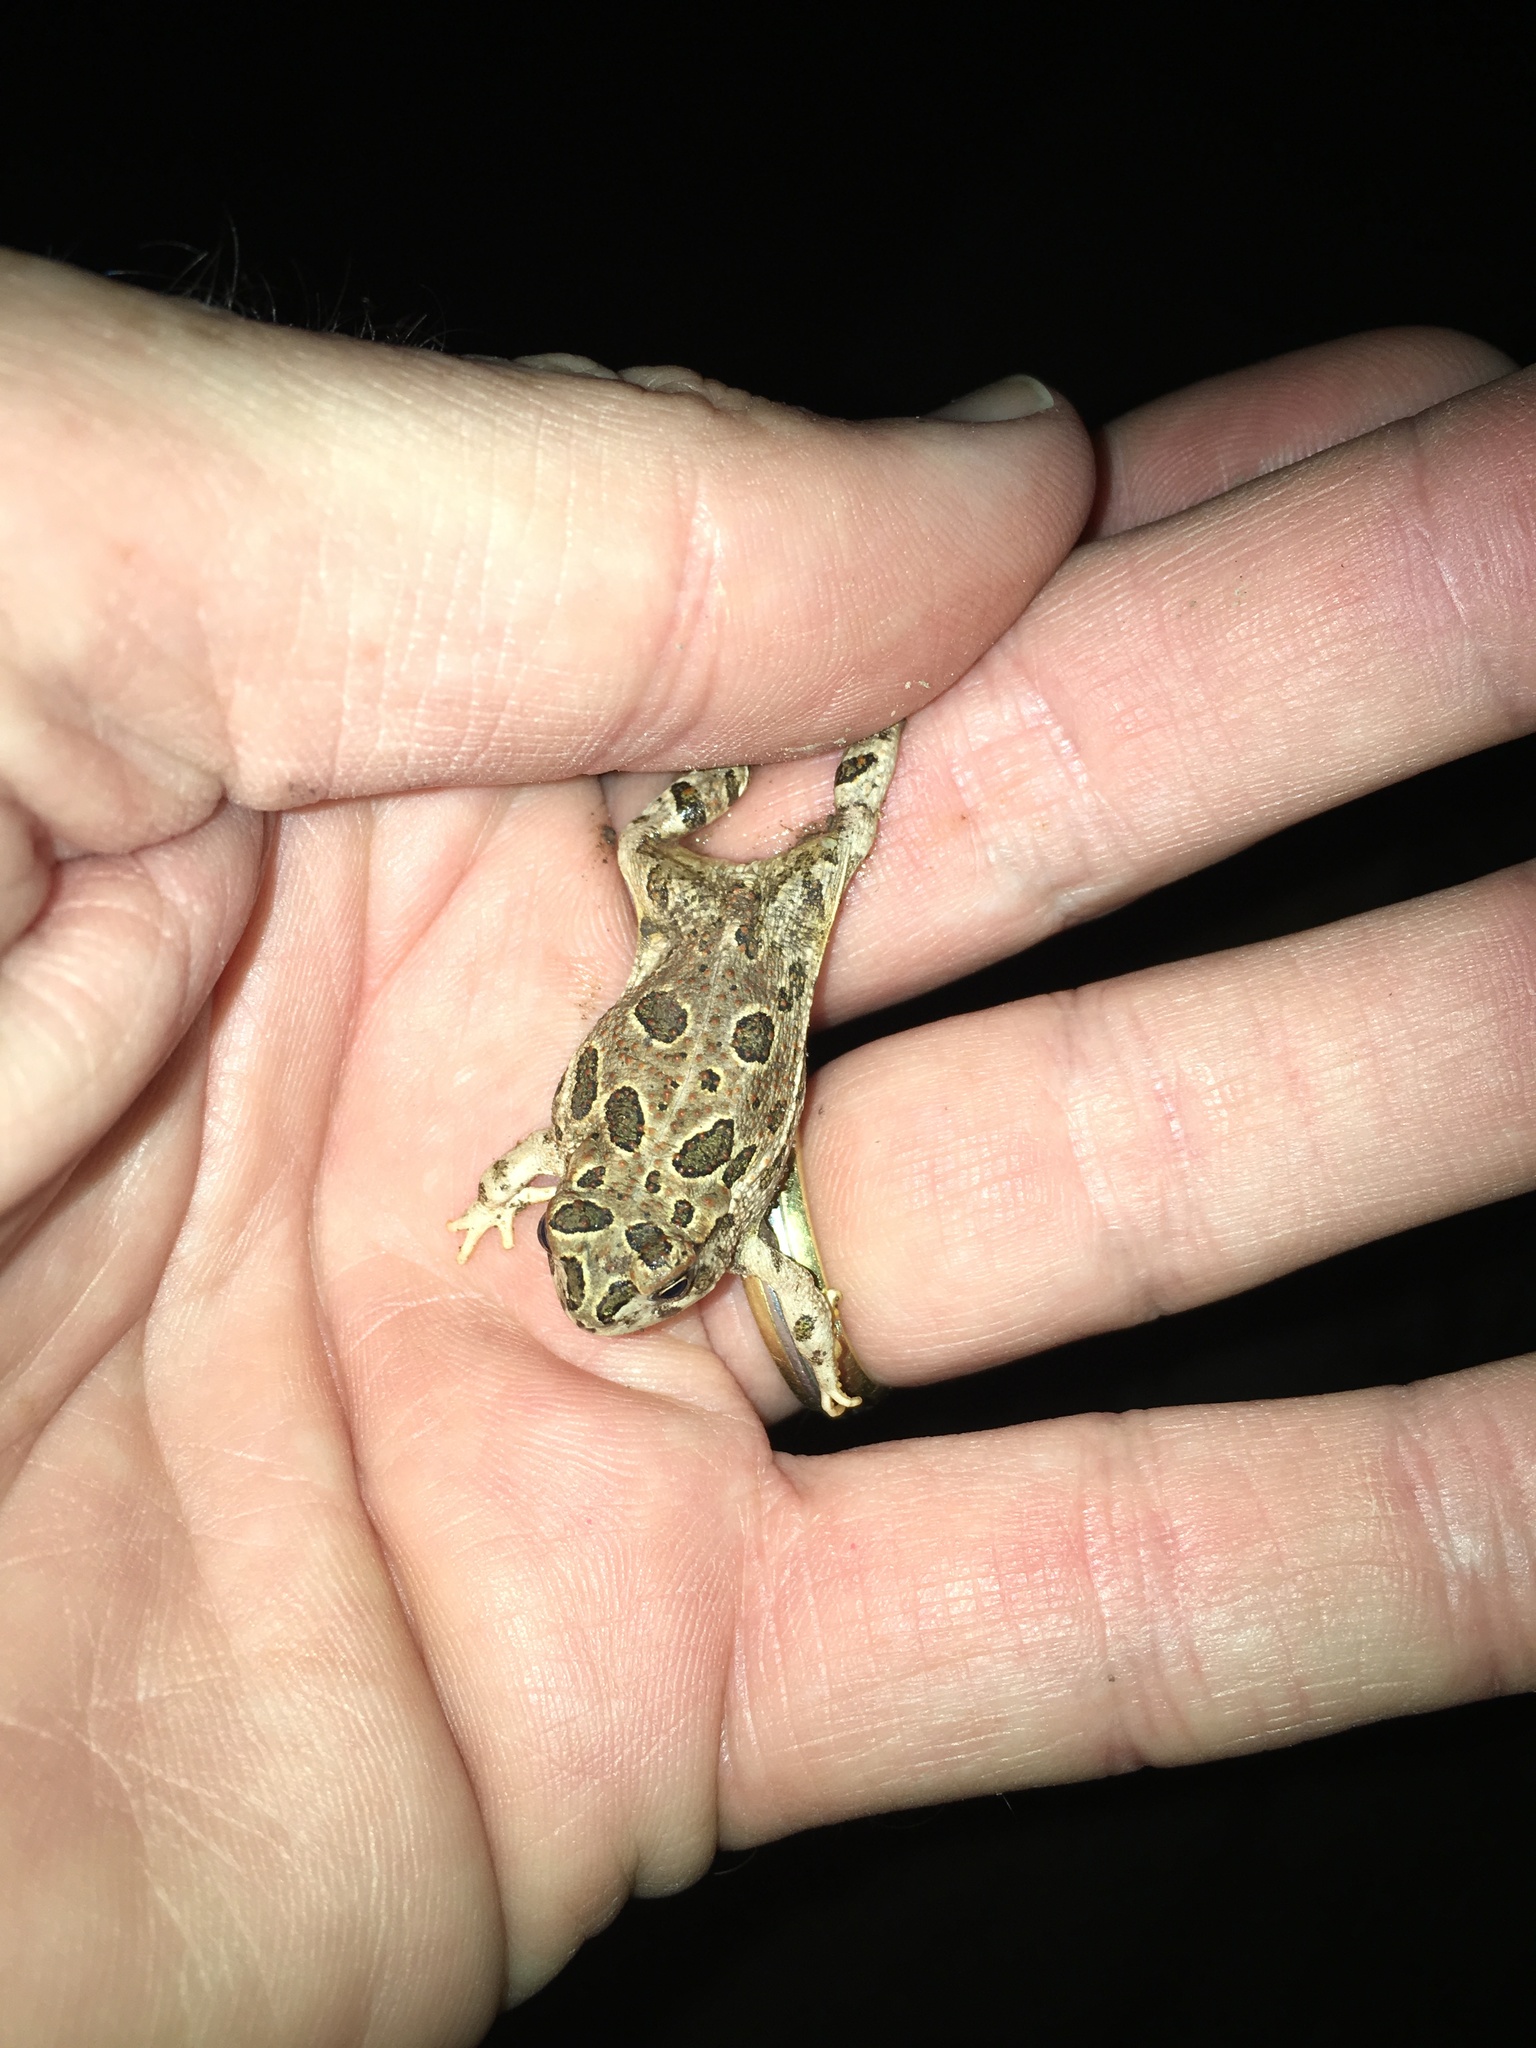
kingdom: Animalia
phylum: Chordata
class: Amphibia
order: Anura
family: Bufonidae
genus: Anaxyrus
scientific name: Anaxyrus cognatus
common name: Great plains toad
